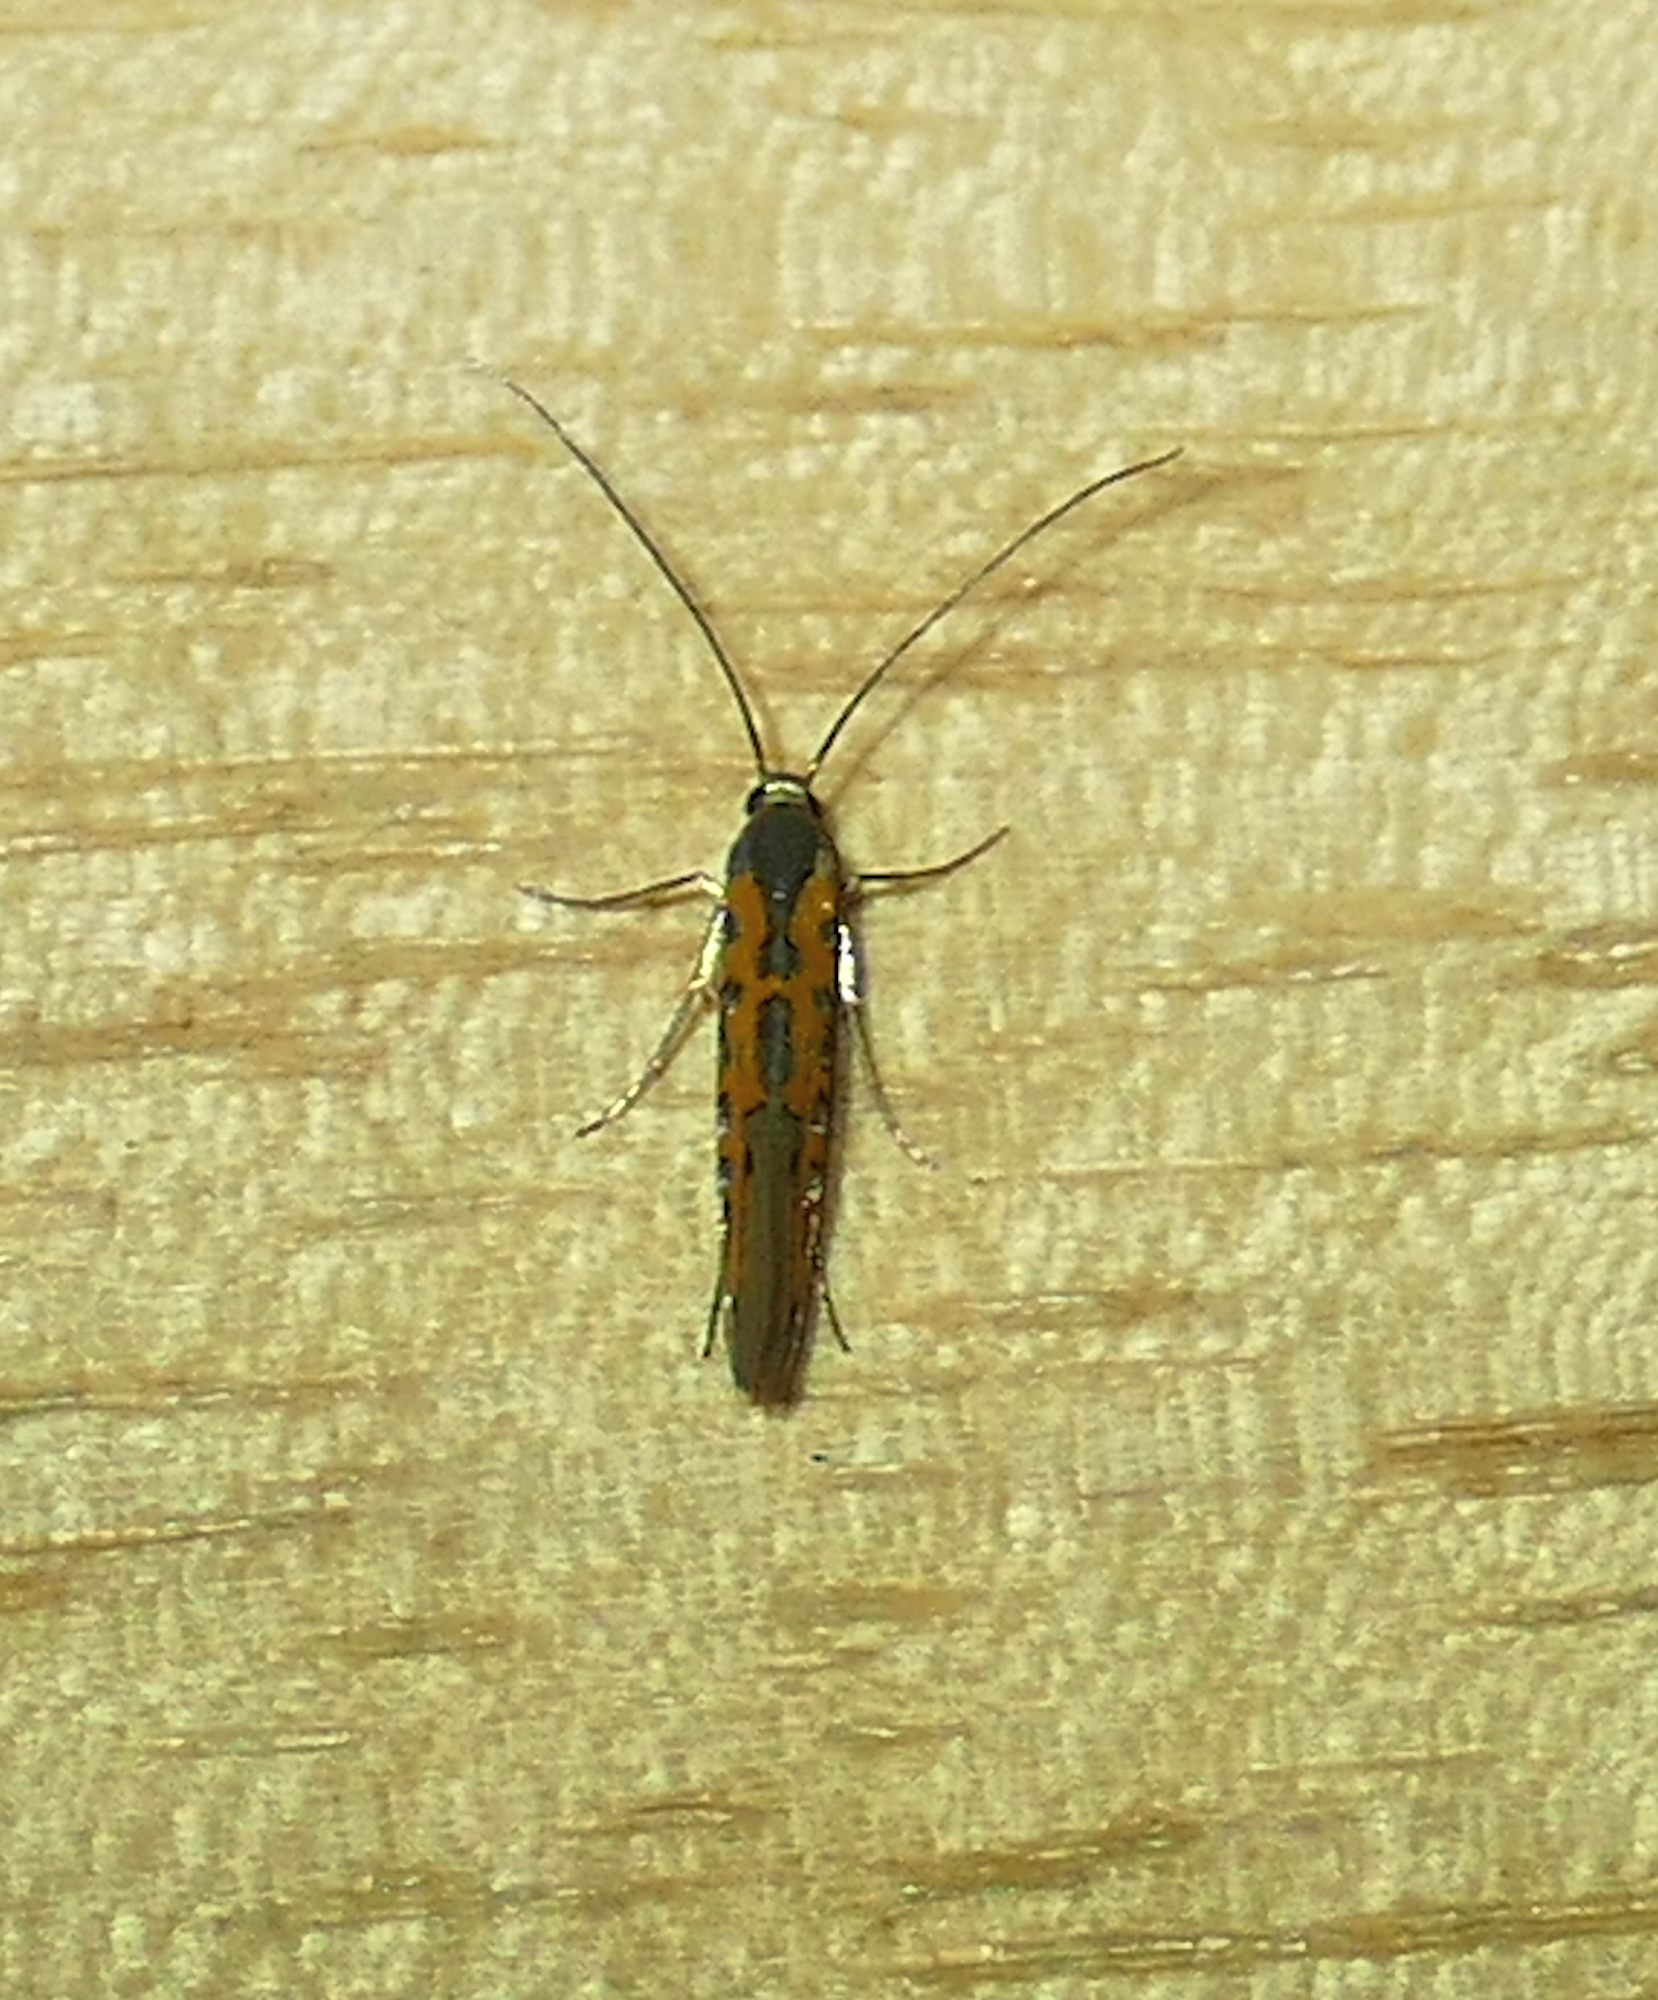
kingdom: Animalia
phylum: Arthropoda
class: Insecta
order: Lepidoptera
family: Heliodinidae
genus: Lamprolophus
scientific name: Lamprolophus
